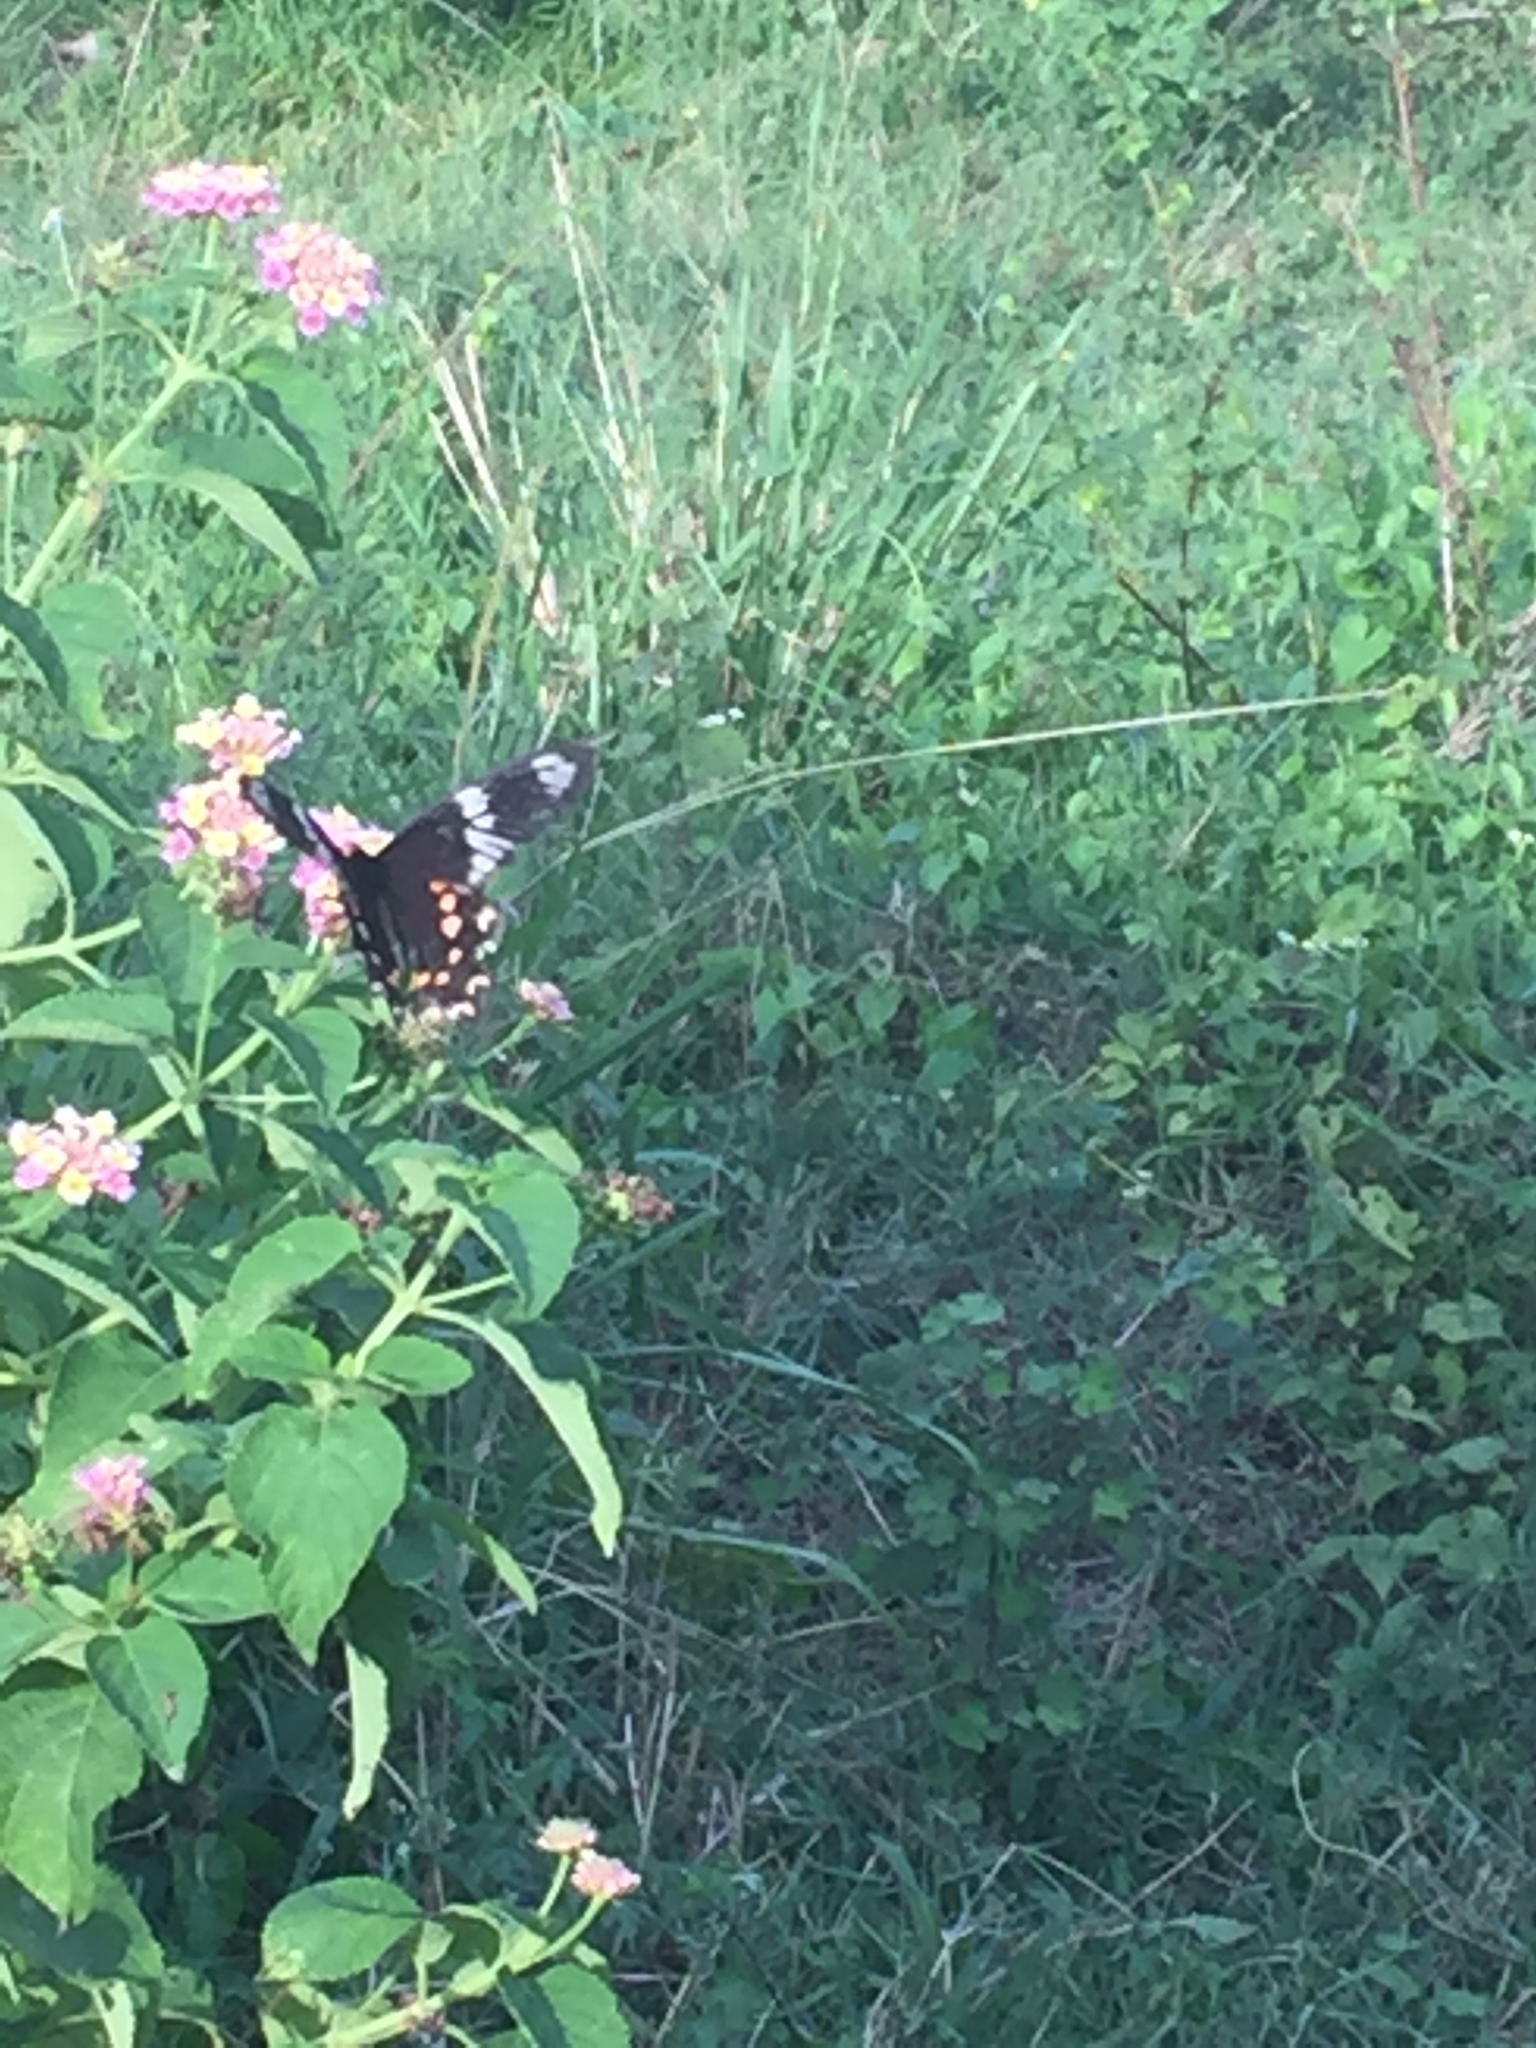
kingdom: Animalia
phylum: Arthropoda
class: Insecta
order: Lepidoptera
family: Papilionidae
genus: Pachliopta
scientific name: Pachliopta hector
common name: Crimson rose
